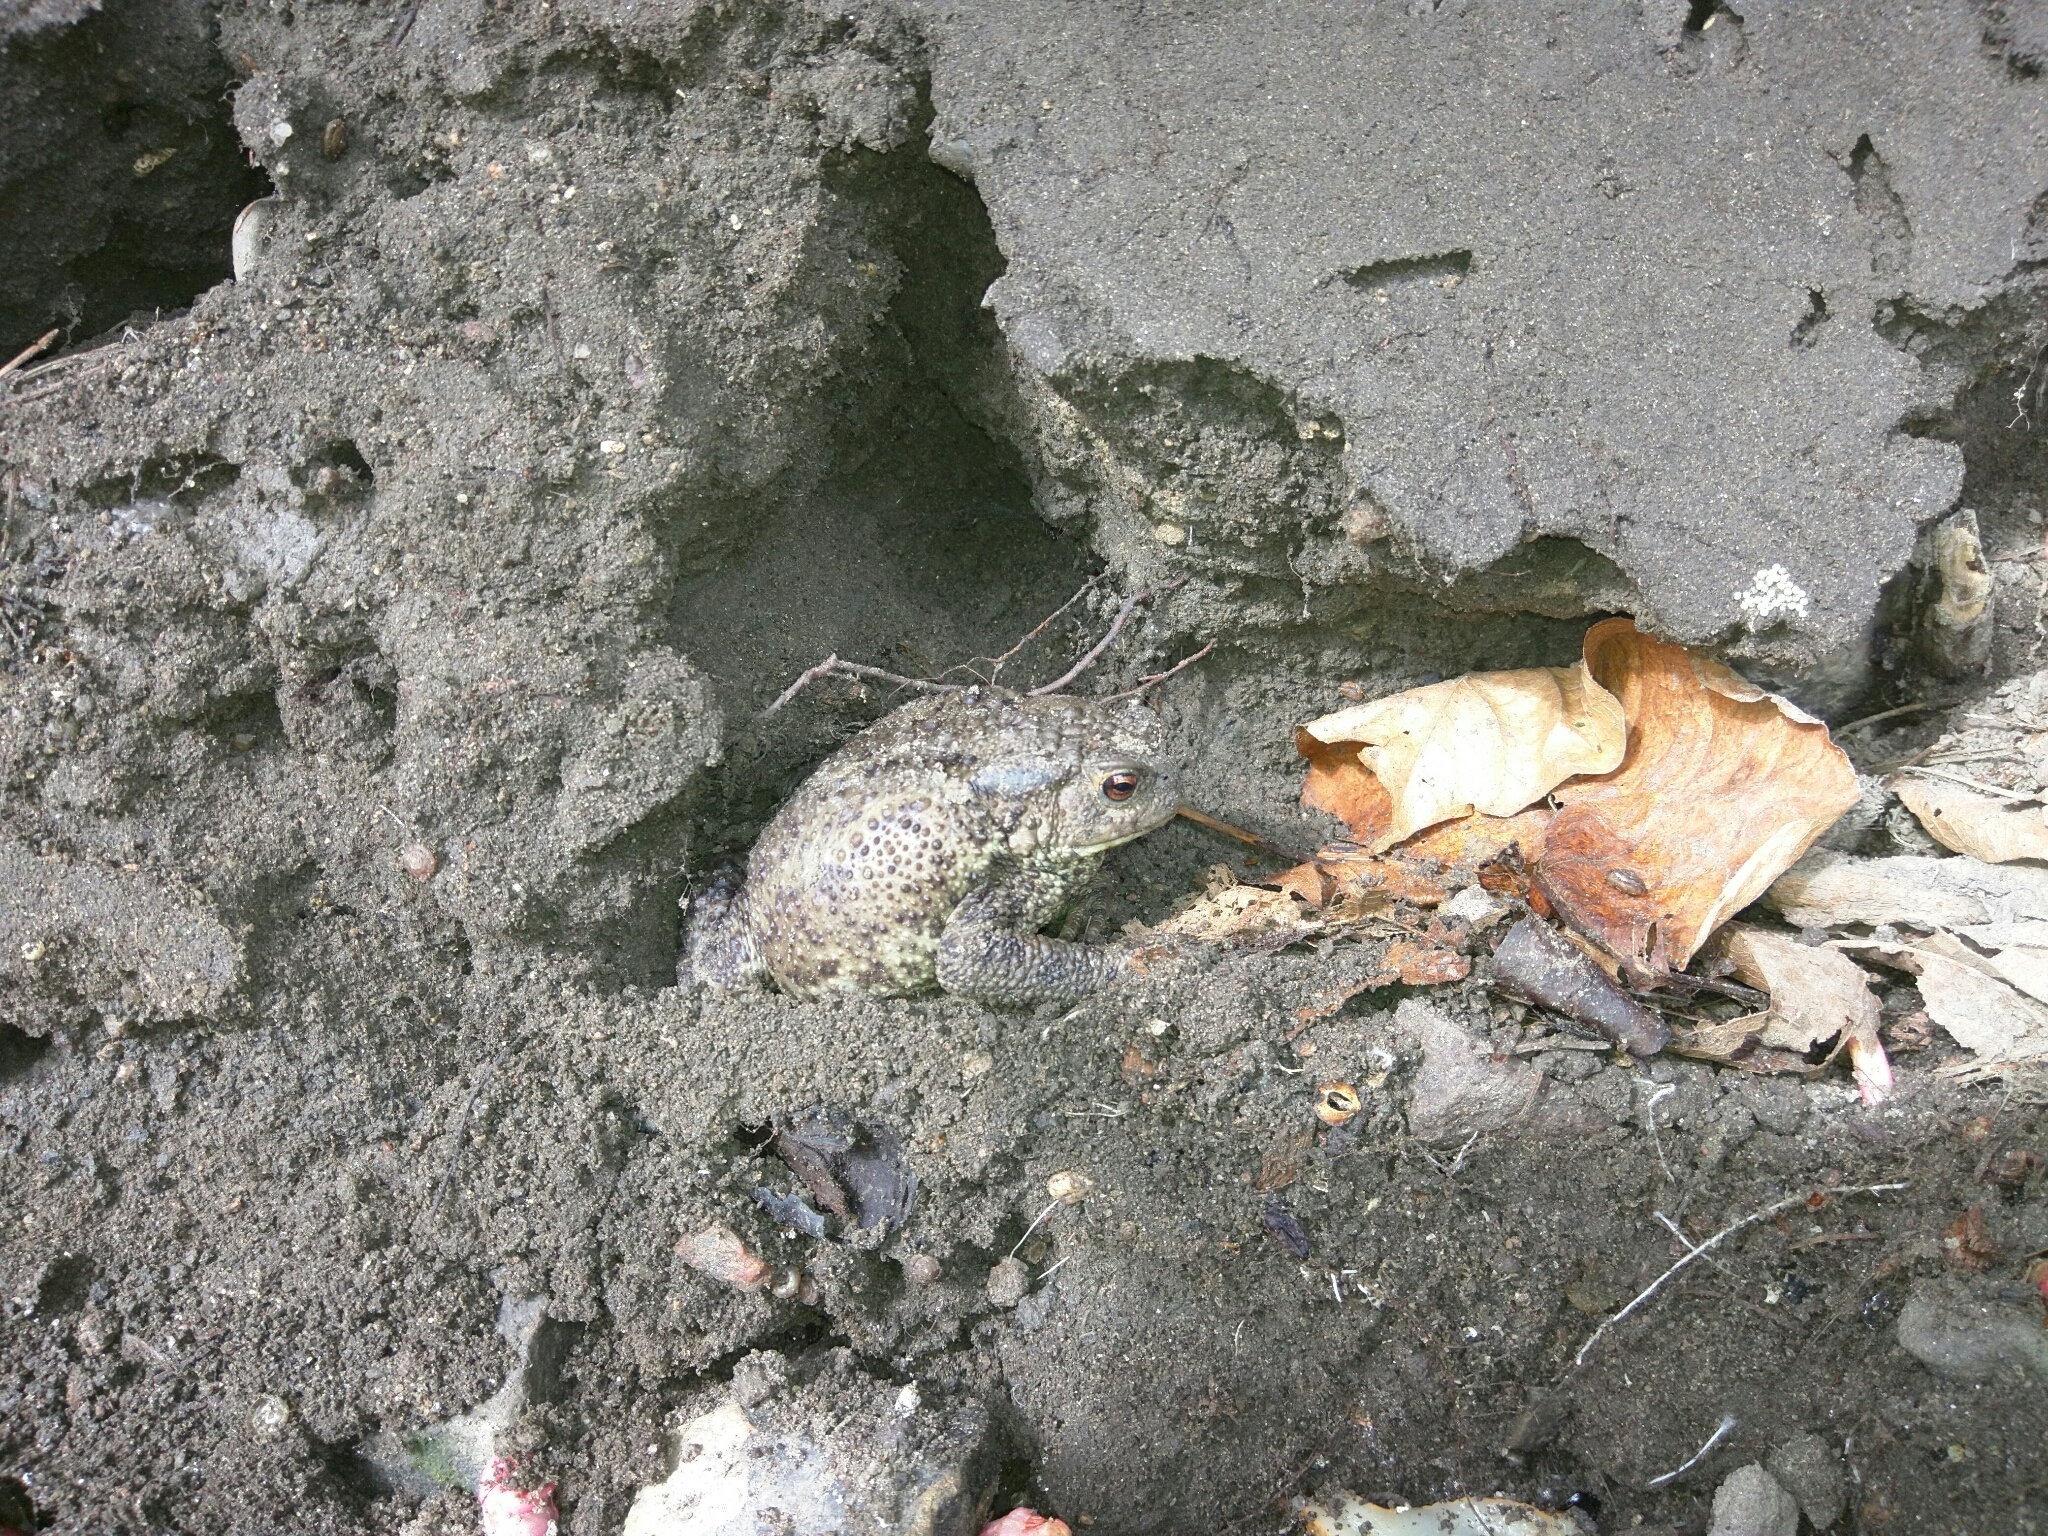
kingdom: Animalia
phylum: Chordata
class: Amphibia
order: Anura
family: Bufonidae
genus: Bufo
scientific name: Bufo bufo
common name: Common toad
